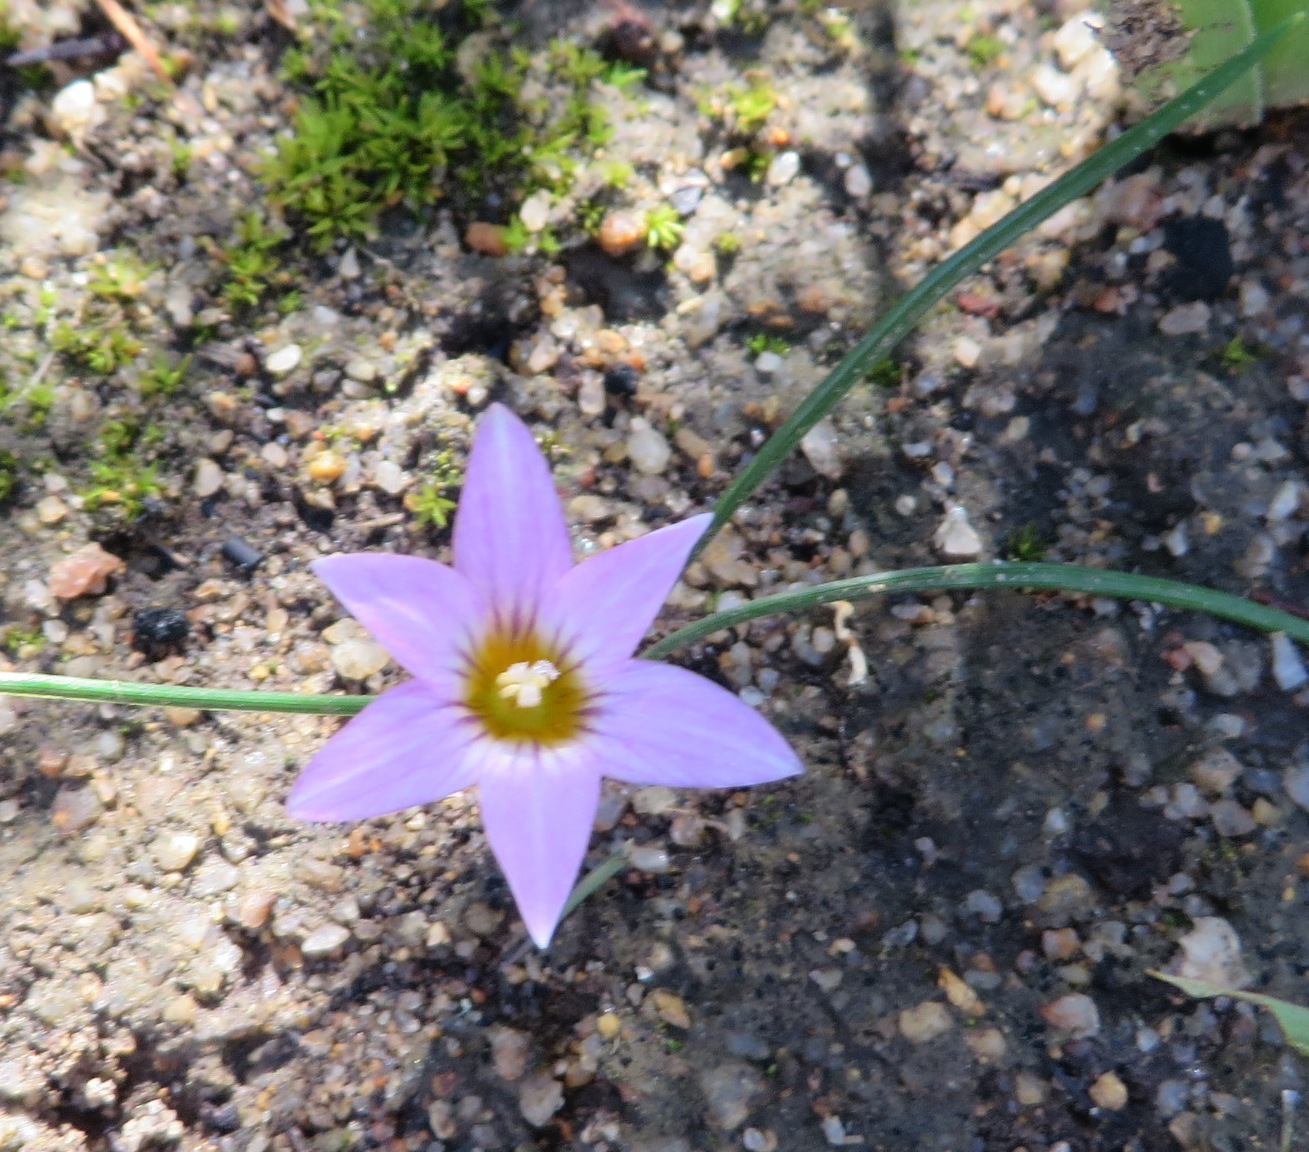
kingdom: Plantae
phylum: Tracheophyta
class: Liliopsida
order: Asparagales
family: Iridaceae
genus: Romulea
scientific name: Romulea rosea
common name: Oniongrass
